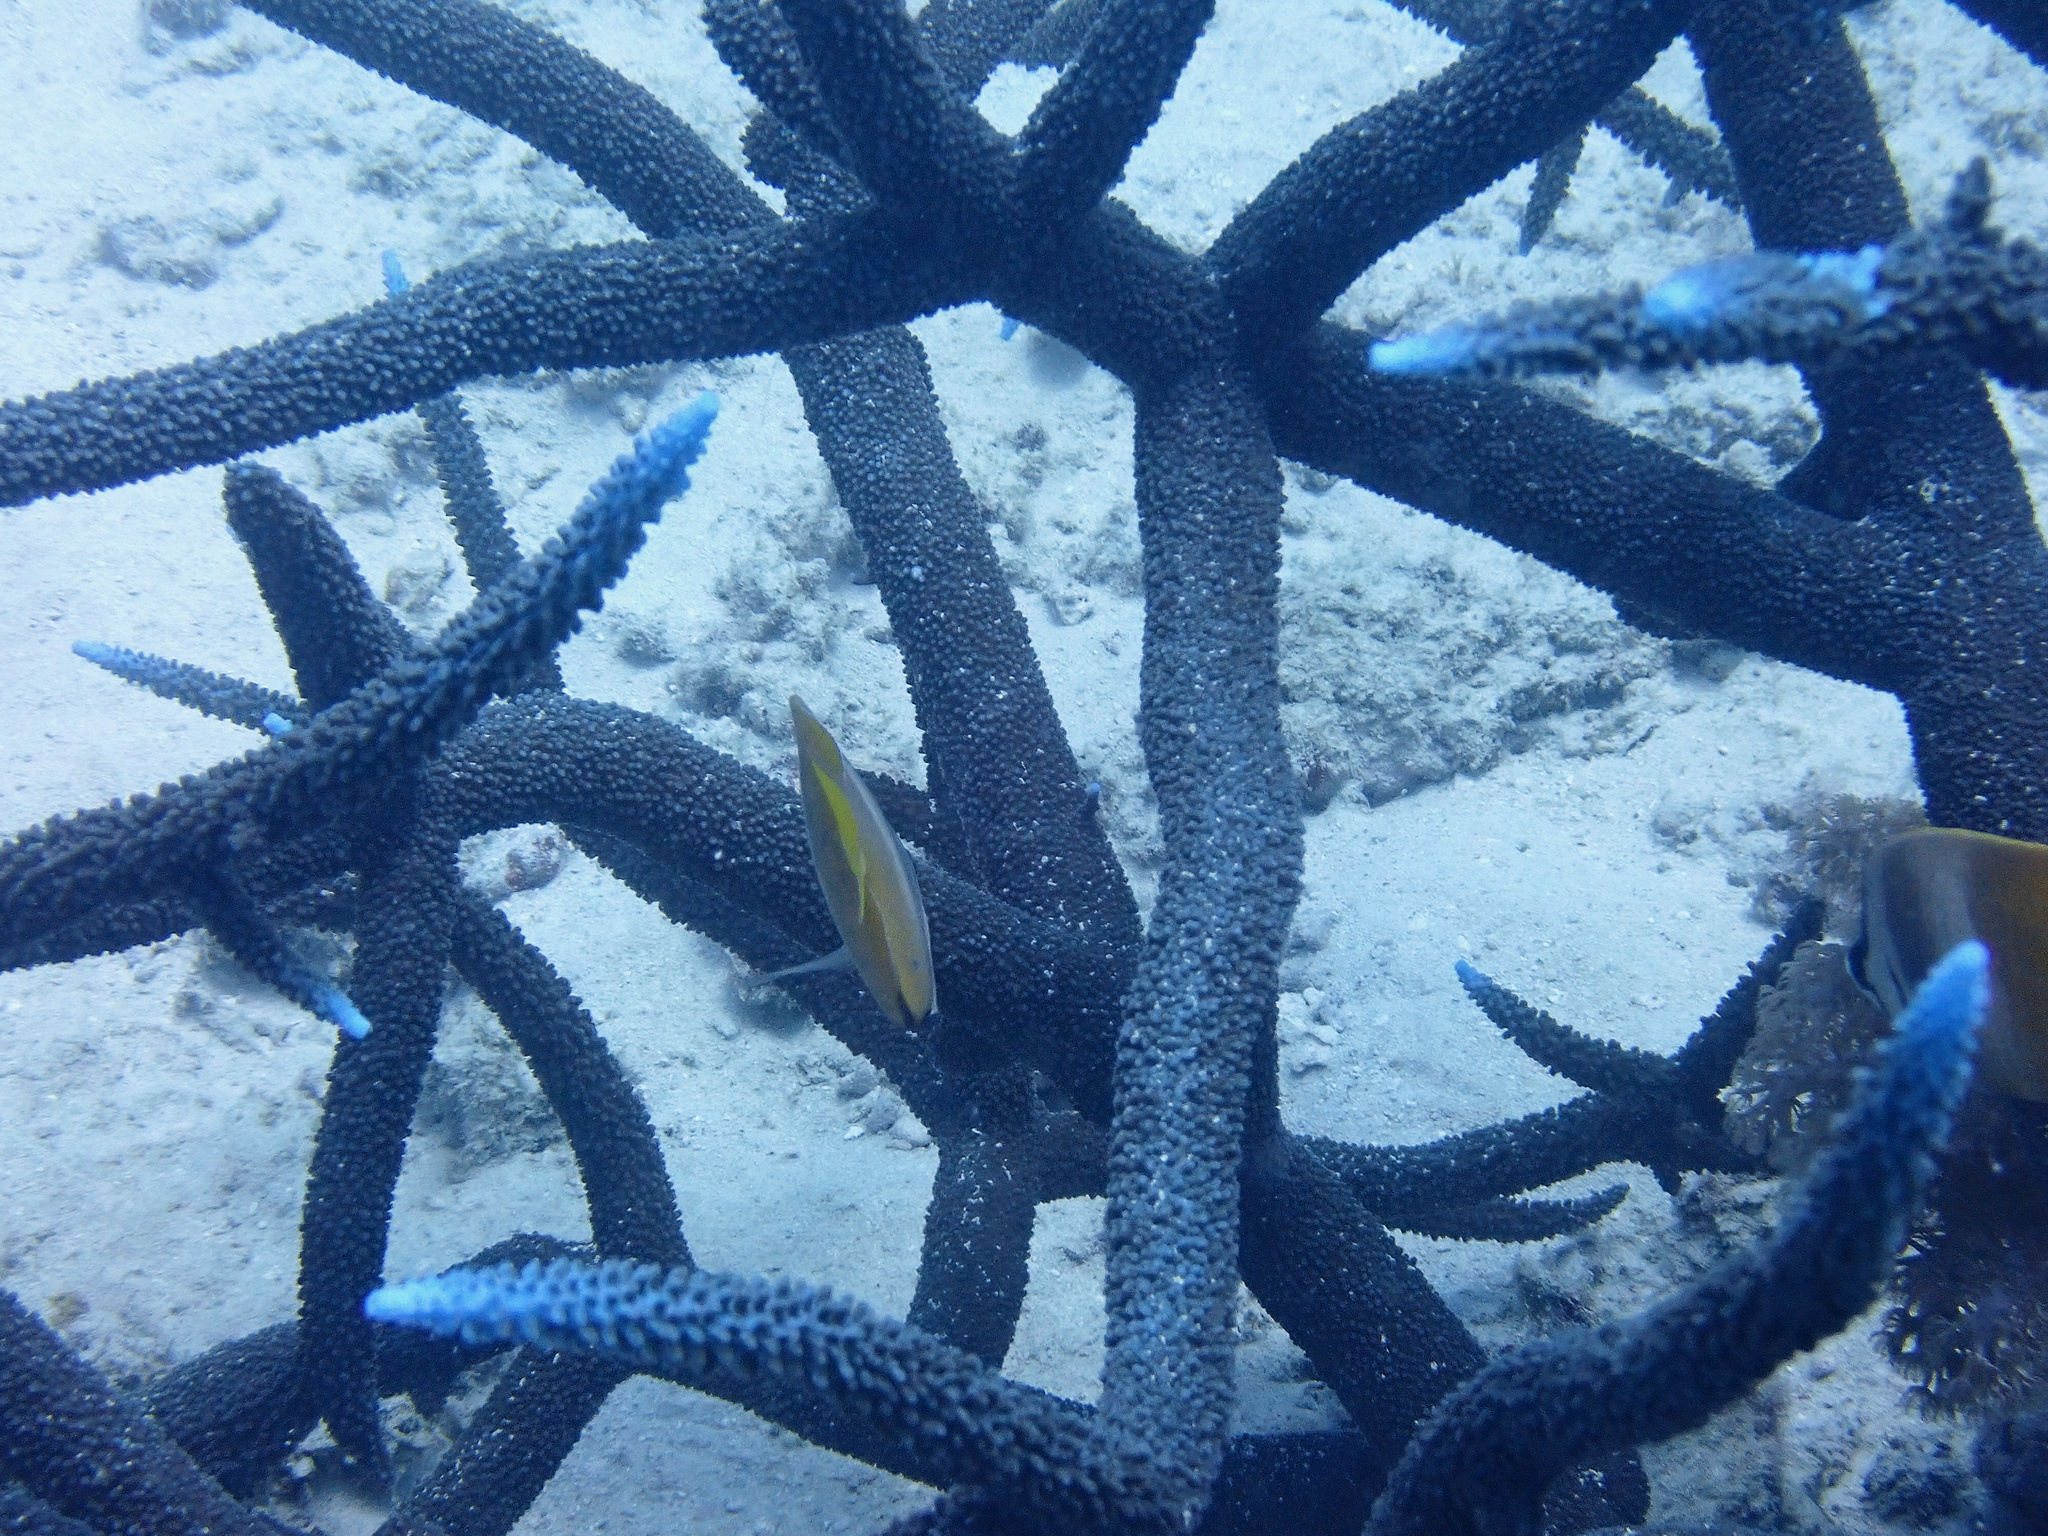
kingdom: Animalia
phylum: Chordata
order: Perciformes
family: Chaetodontidae
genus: Chaetodon
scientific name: Chaetodon kleinii
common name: Klein's butterflyfish
